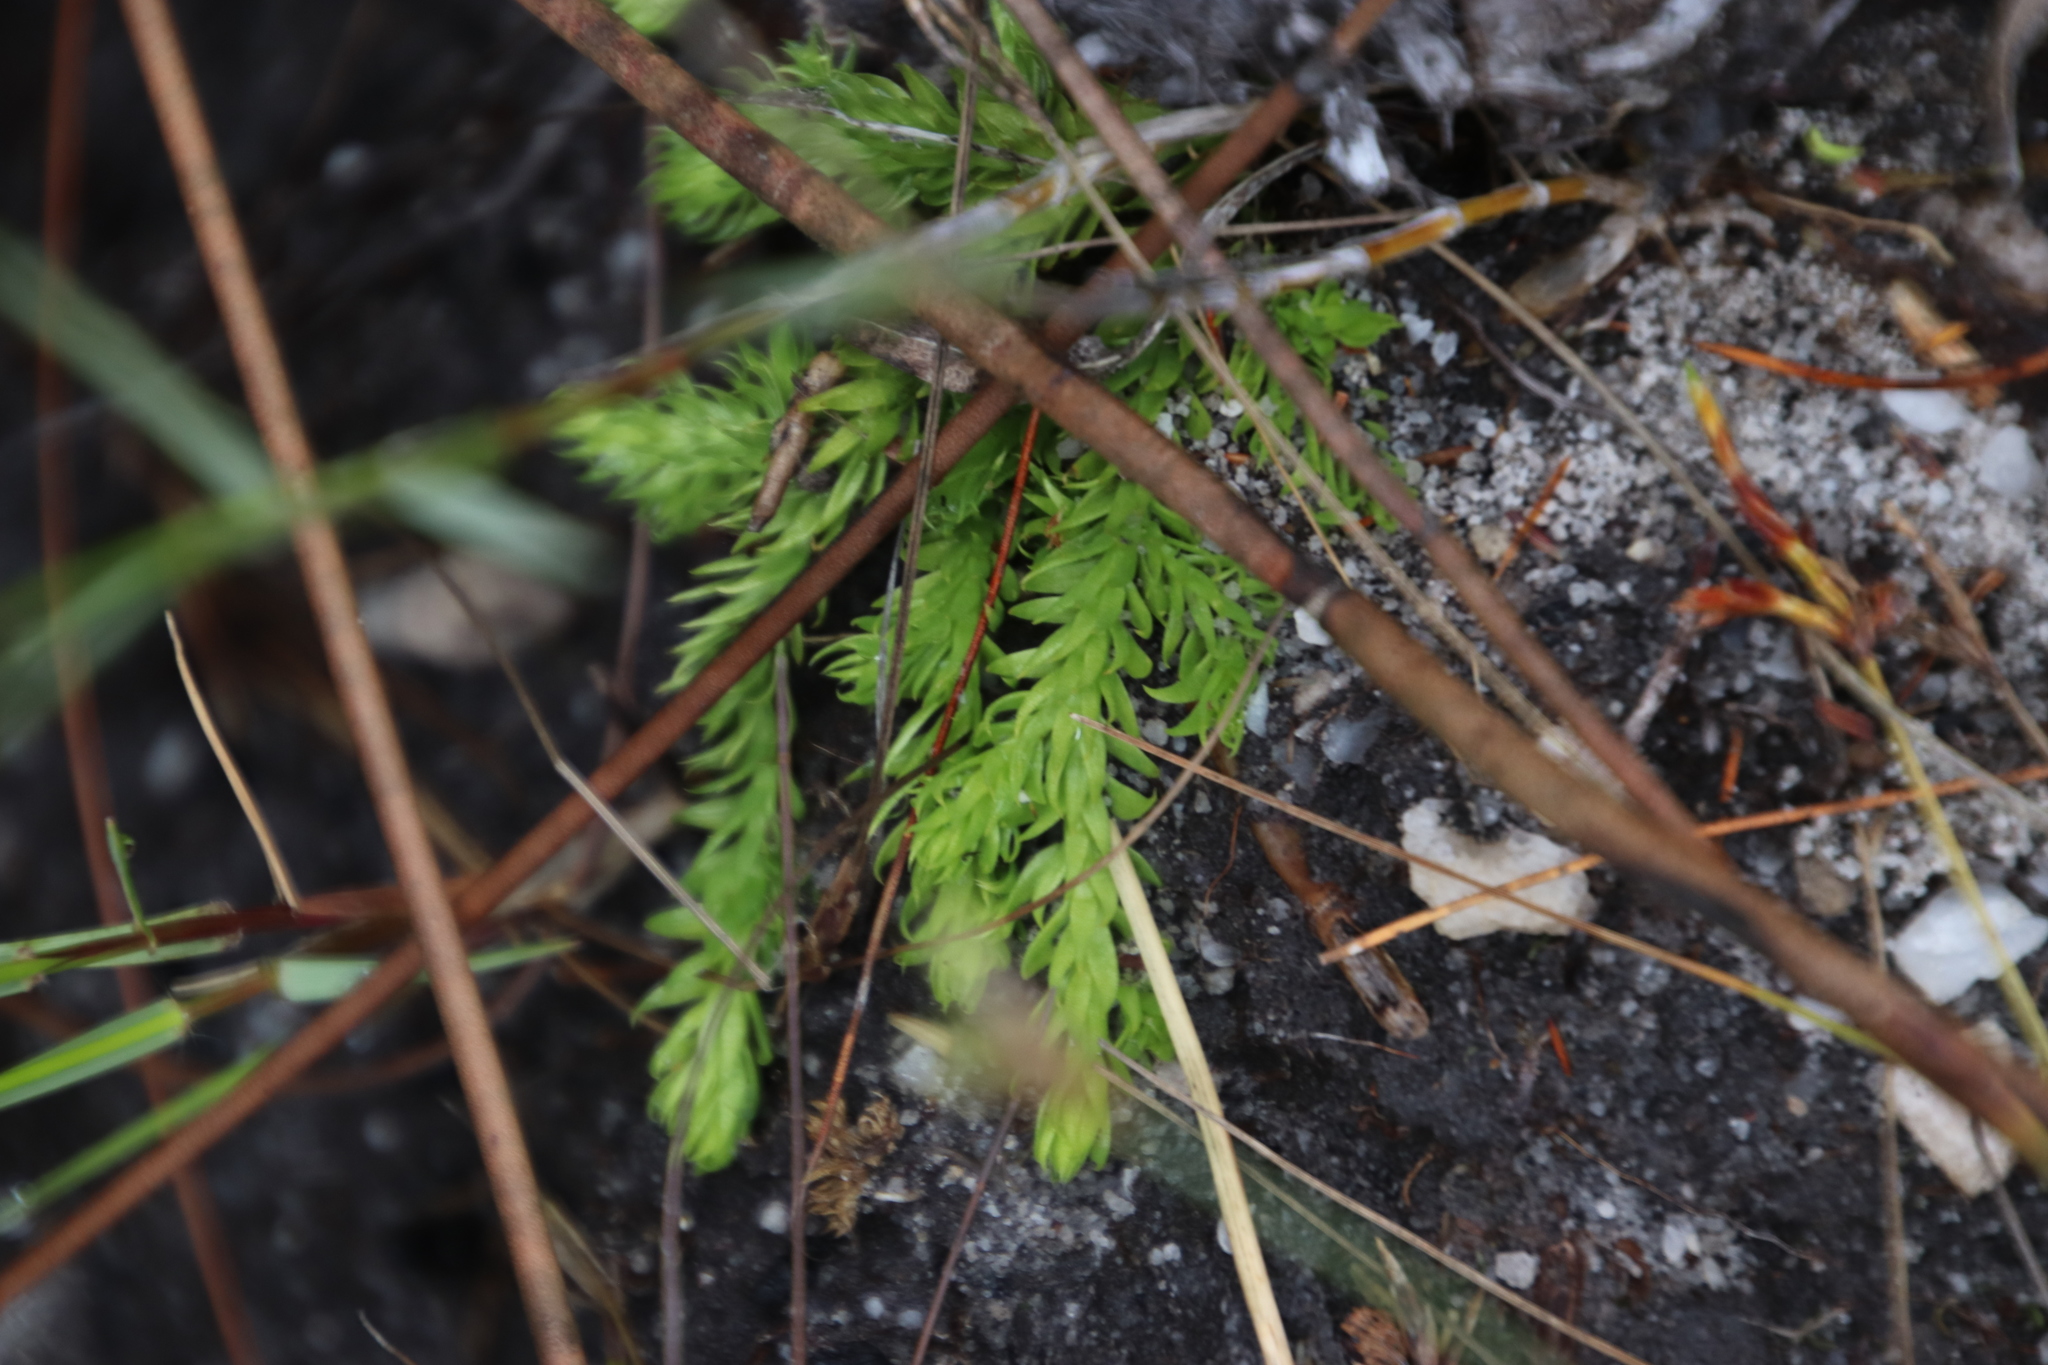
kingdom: Plantae
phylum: Tracheophyta
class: Lycopodiopsida
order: Lycopodiales
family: Lycopodiaceae
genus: Pseudolycopodiella
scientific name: Pseudolycopodiella caroliniana
